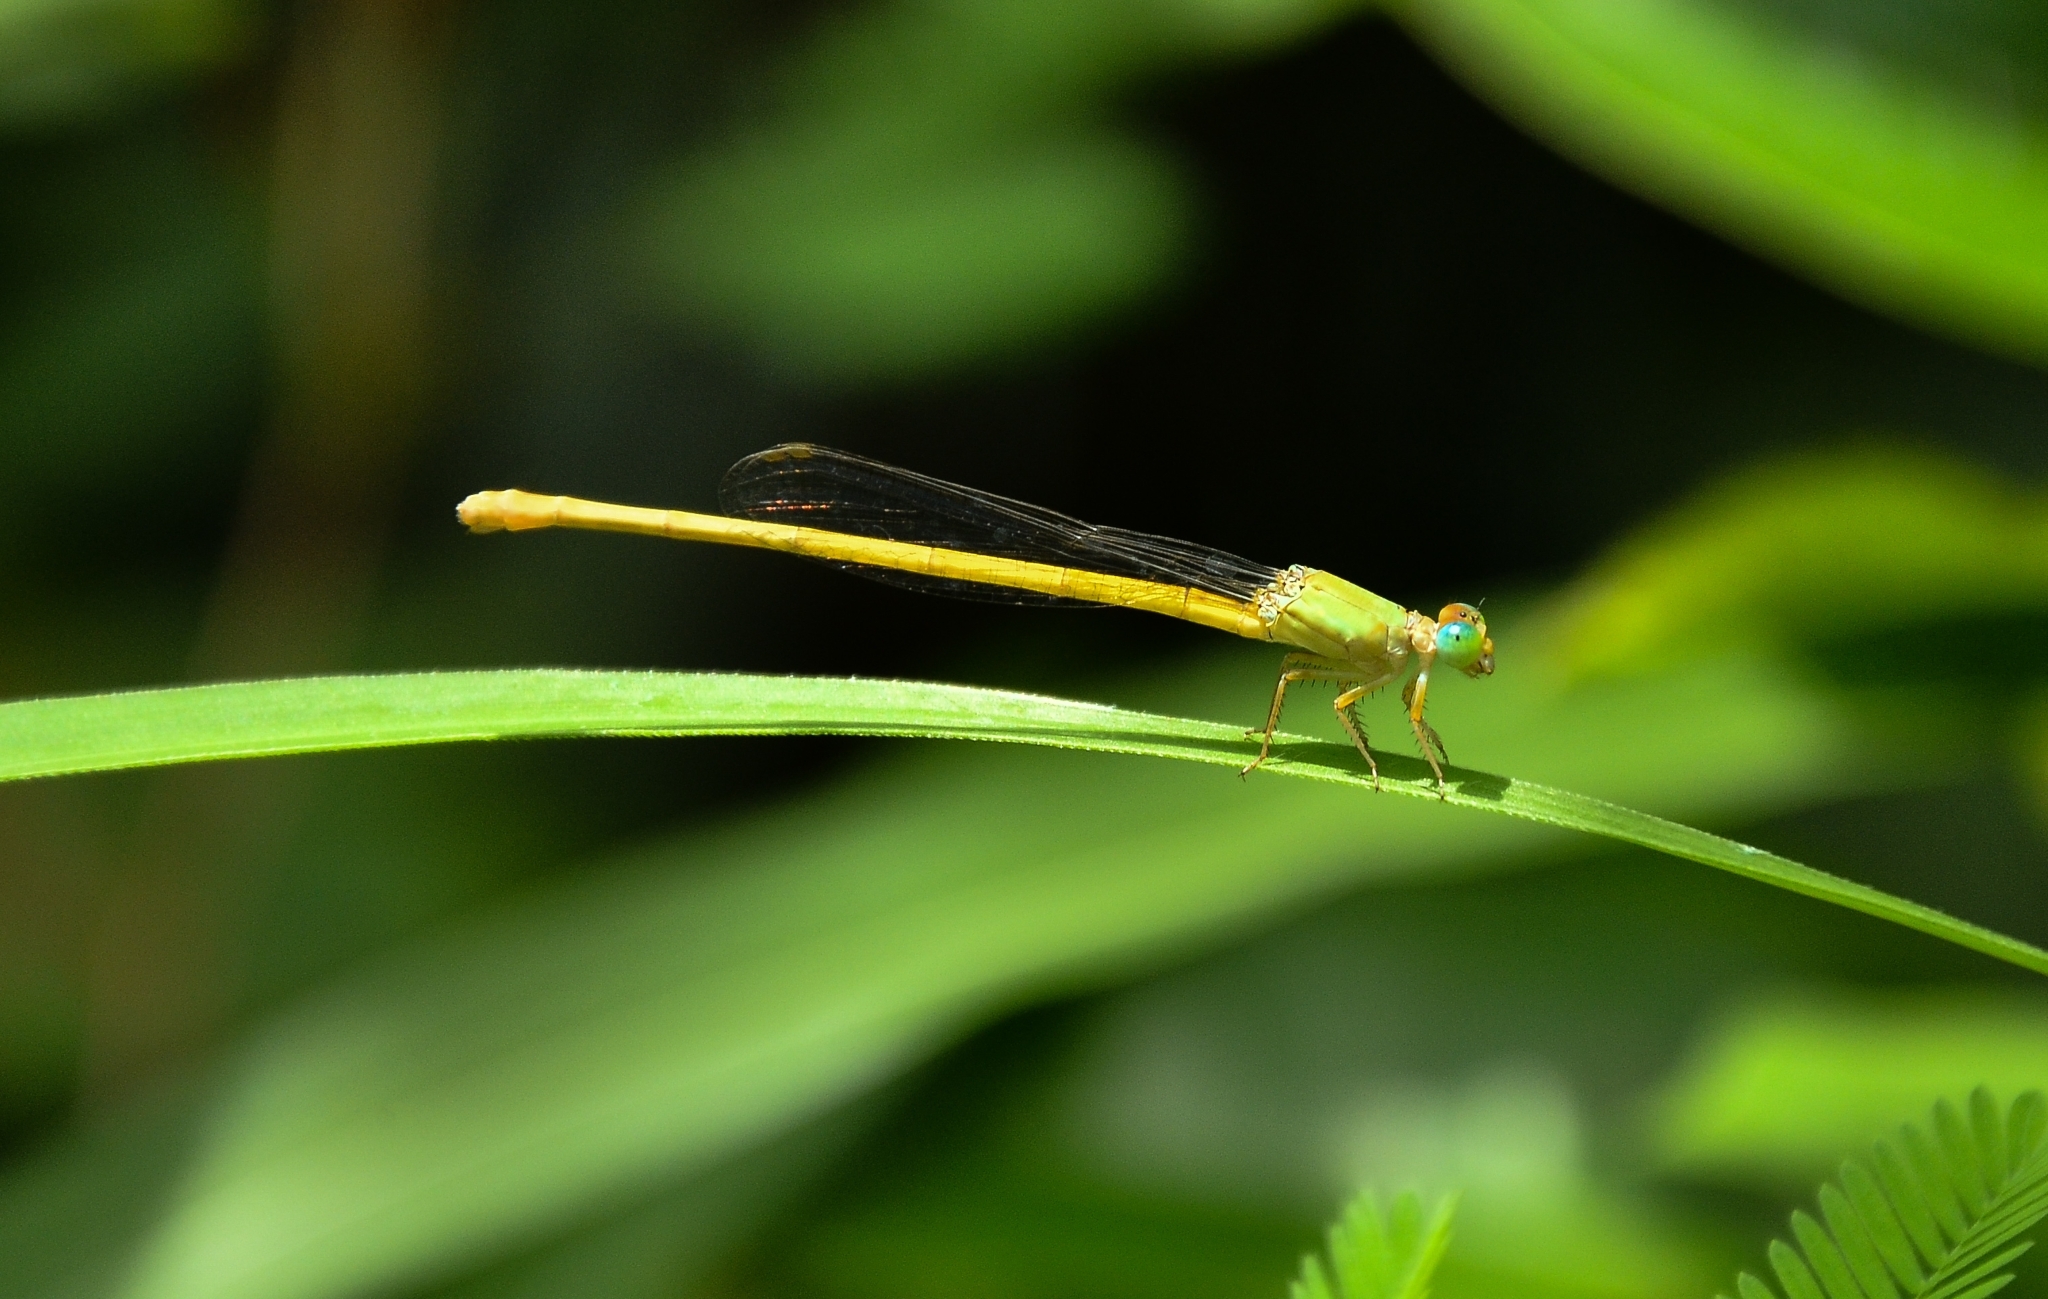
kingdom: Animalia
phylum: Arthropoda
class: Insecta
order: Odonata
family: Coenagrionidae
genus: Ceriagrion
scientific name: Ceriagrion coromandelianum
